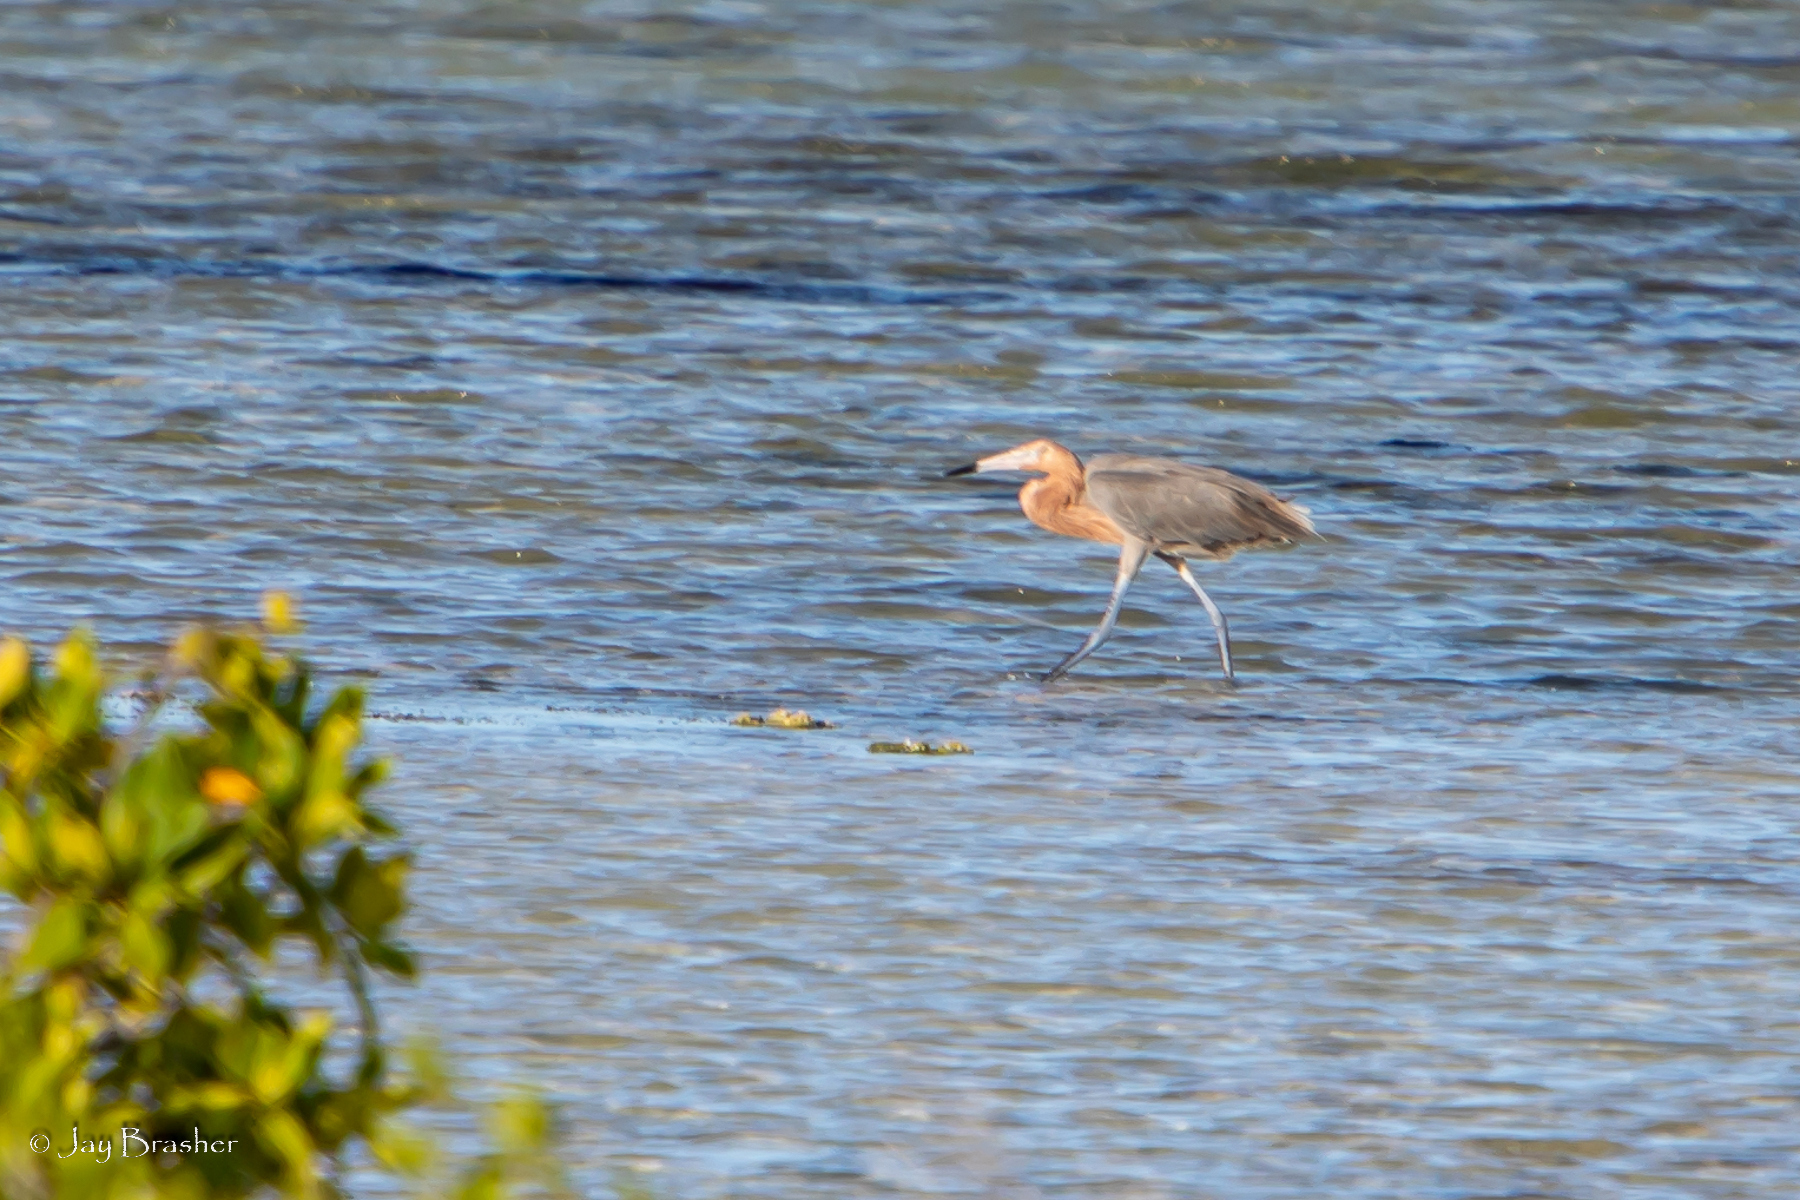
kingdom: Animalia
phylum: Chordata
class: Aves
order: Pelecaniformes
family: Ardeidae
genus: Egretta
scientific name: Egretta rufescens
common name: Reddish egret
